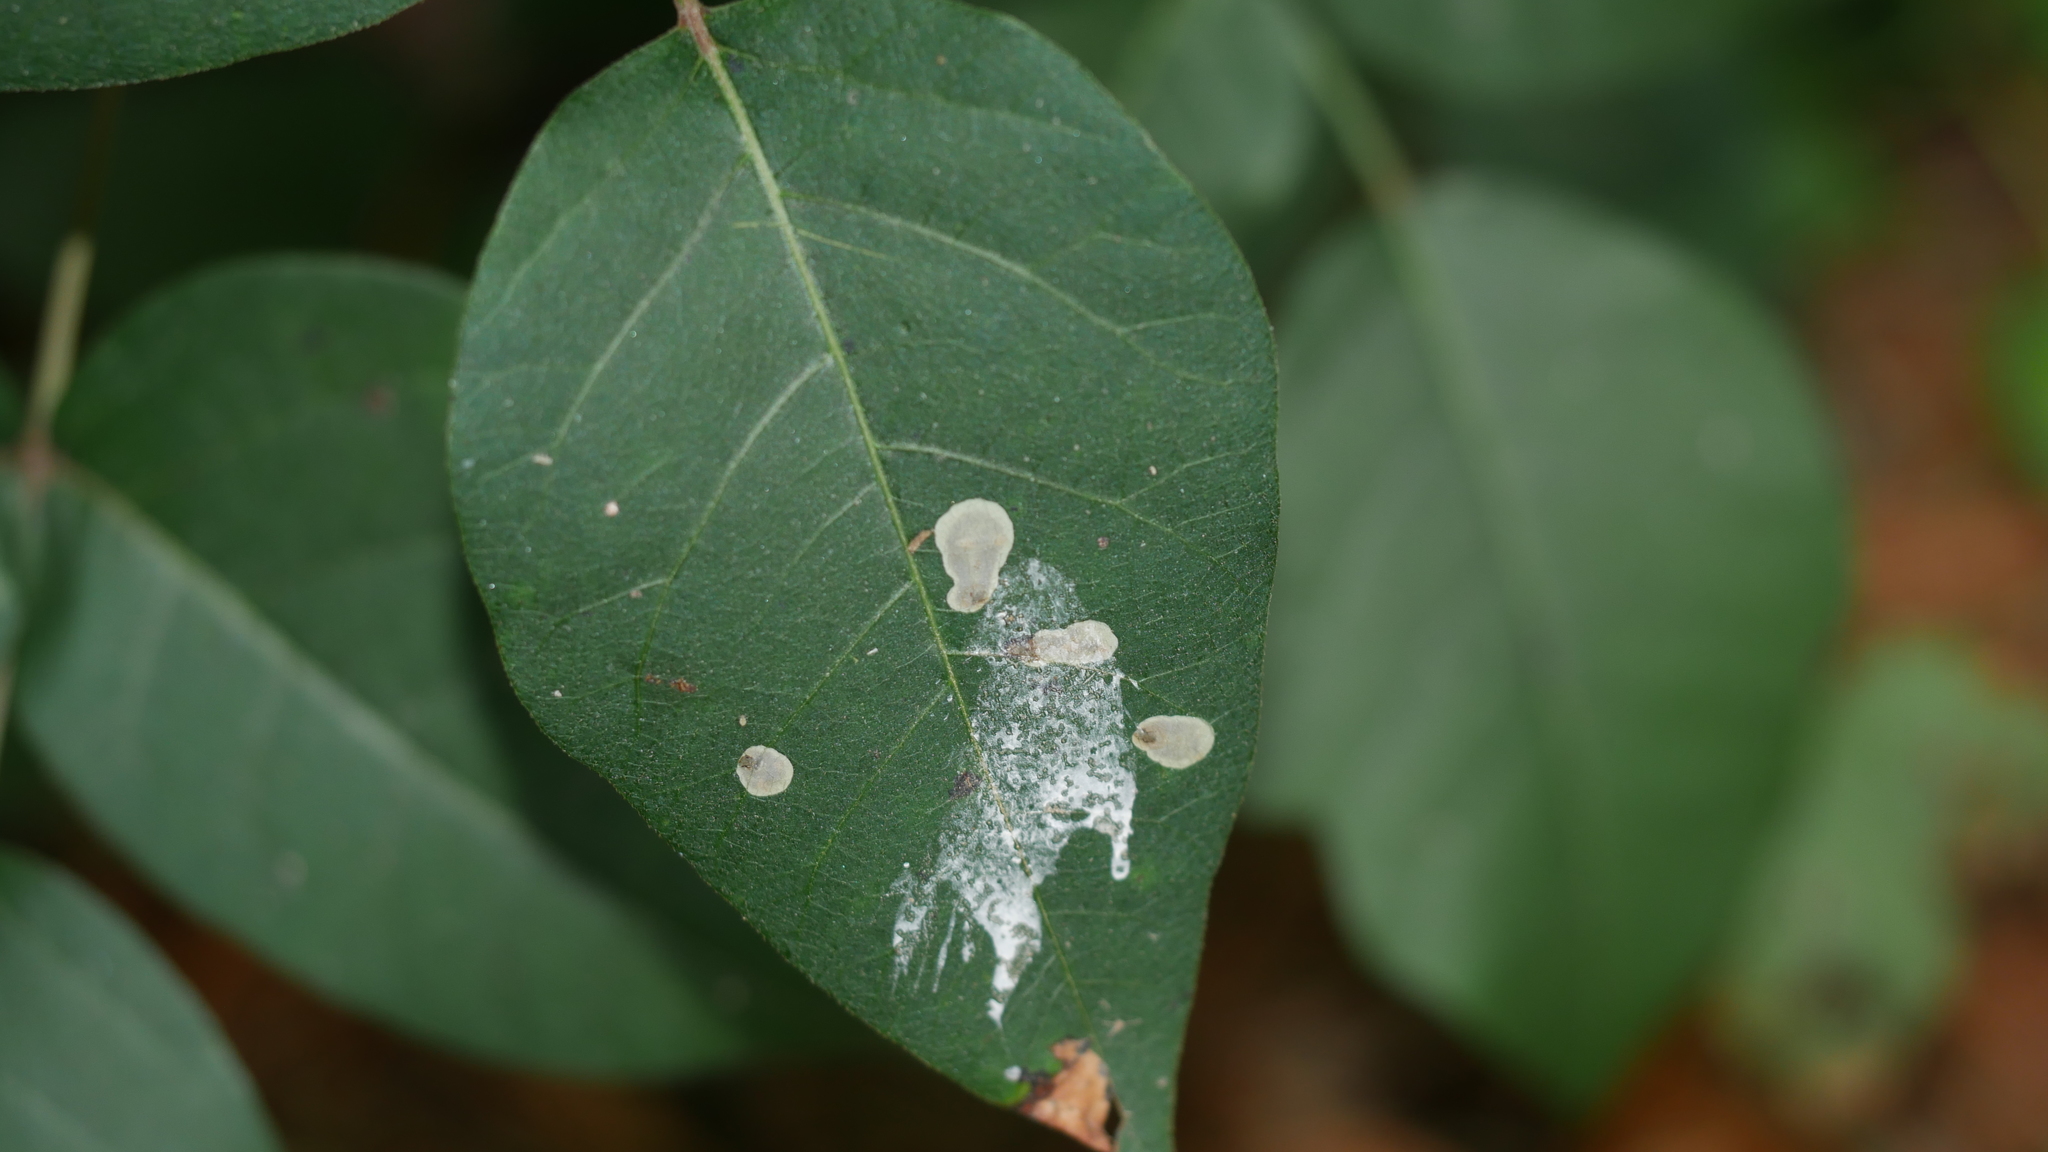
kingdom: Animalia
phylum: Arthropoda
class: Insecta
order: Lepidoptera
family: Gracillariidae
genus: Cameraria
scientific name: Cameraria guttifinitella
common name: Poison ivy leaf-miner moth
